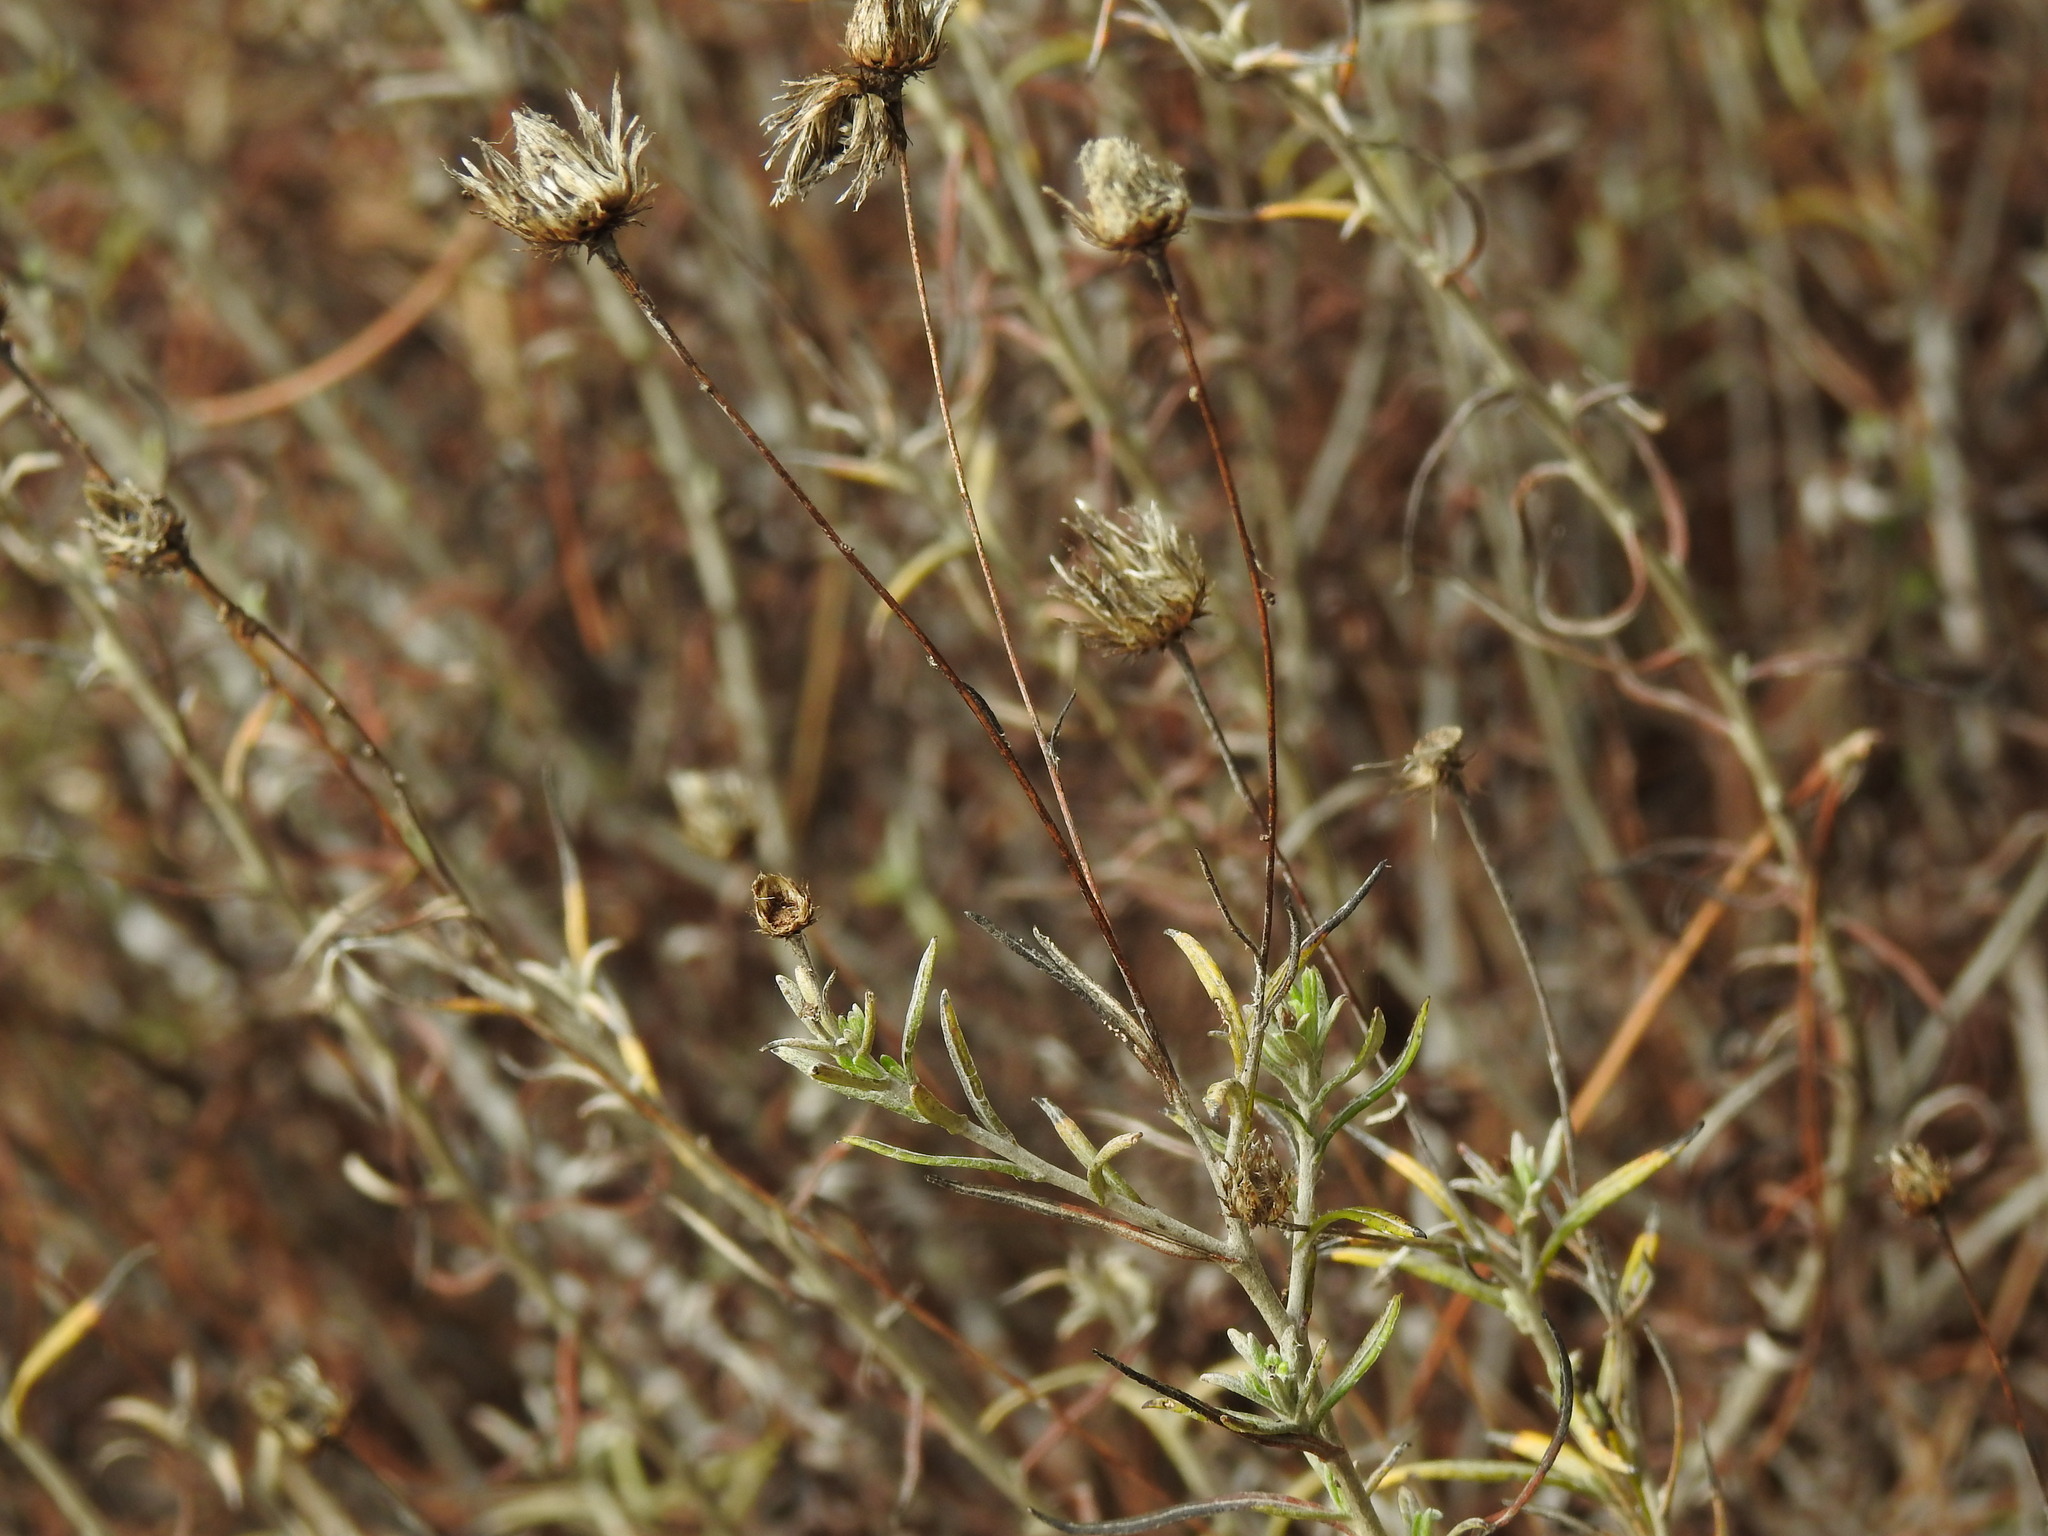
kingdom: Plantae
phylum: Tracheophyta
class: Magnoliopsida
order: Asterales
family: Asteraceae
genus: Phagnalon
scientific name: Phagnalon saxatile
